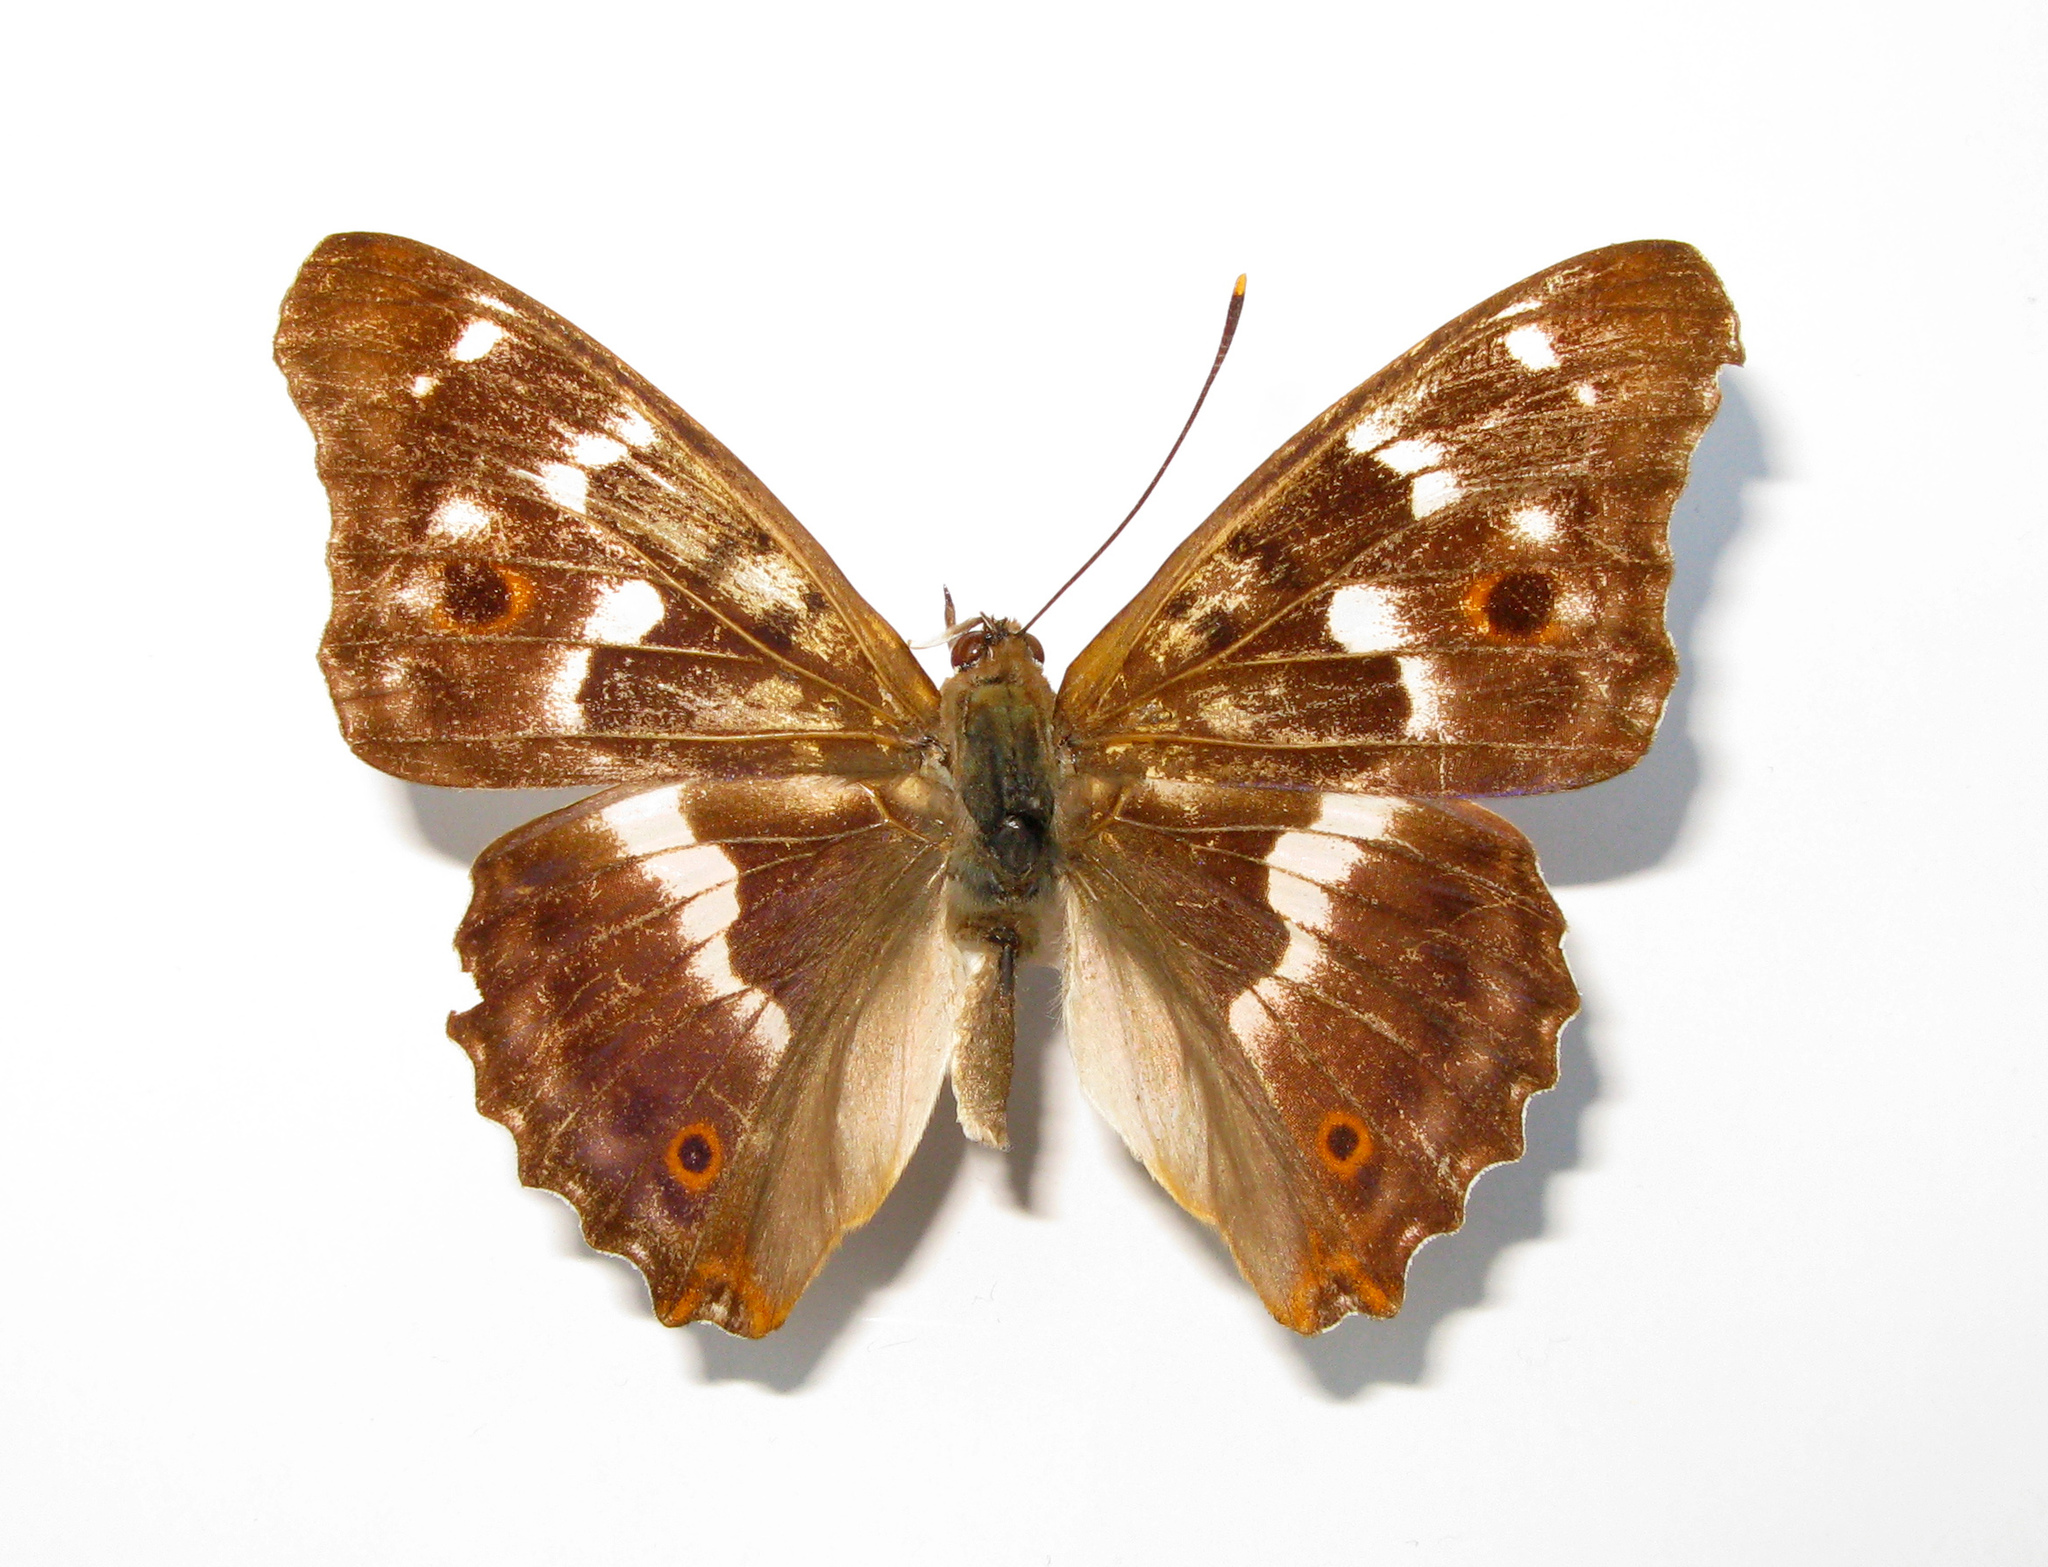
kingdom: Animalia
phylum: Arthropoda
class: Insecta
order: Lepidoptera
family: Nymphalidae
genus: Apatura
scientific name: Apatura ilia
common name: Lesser purple emperor
